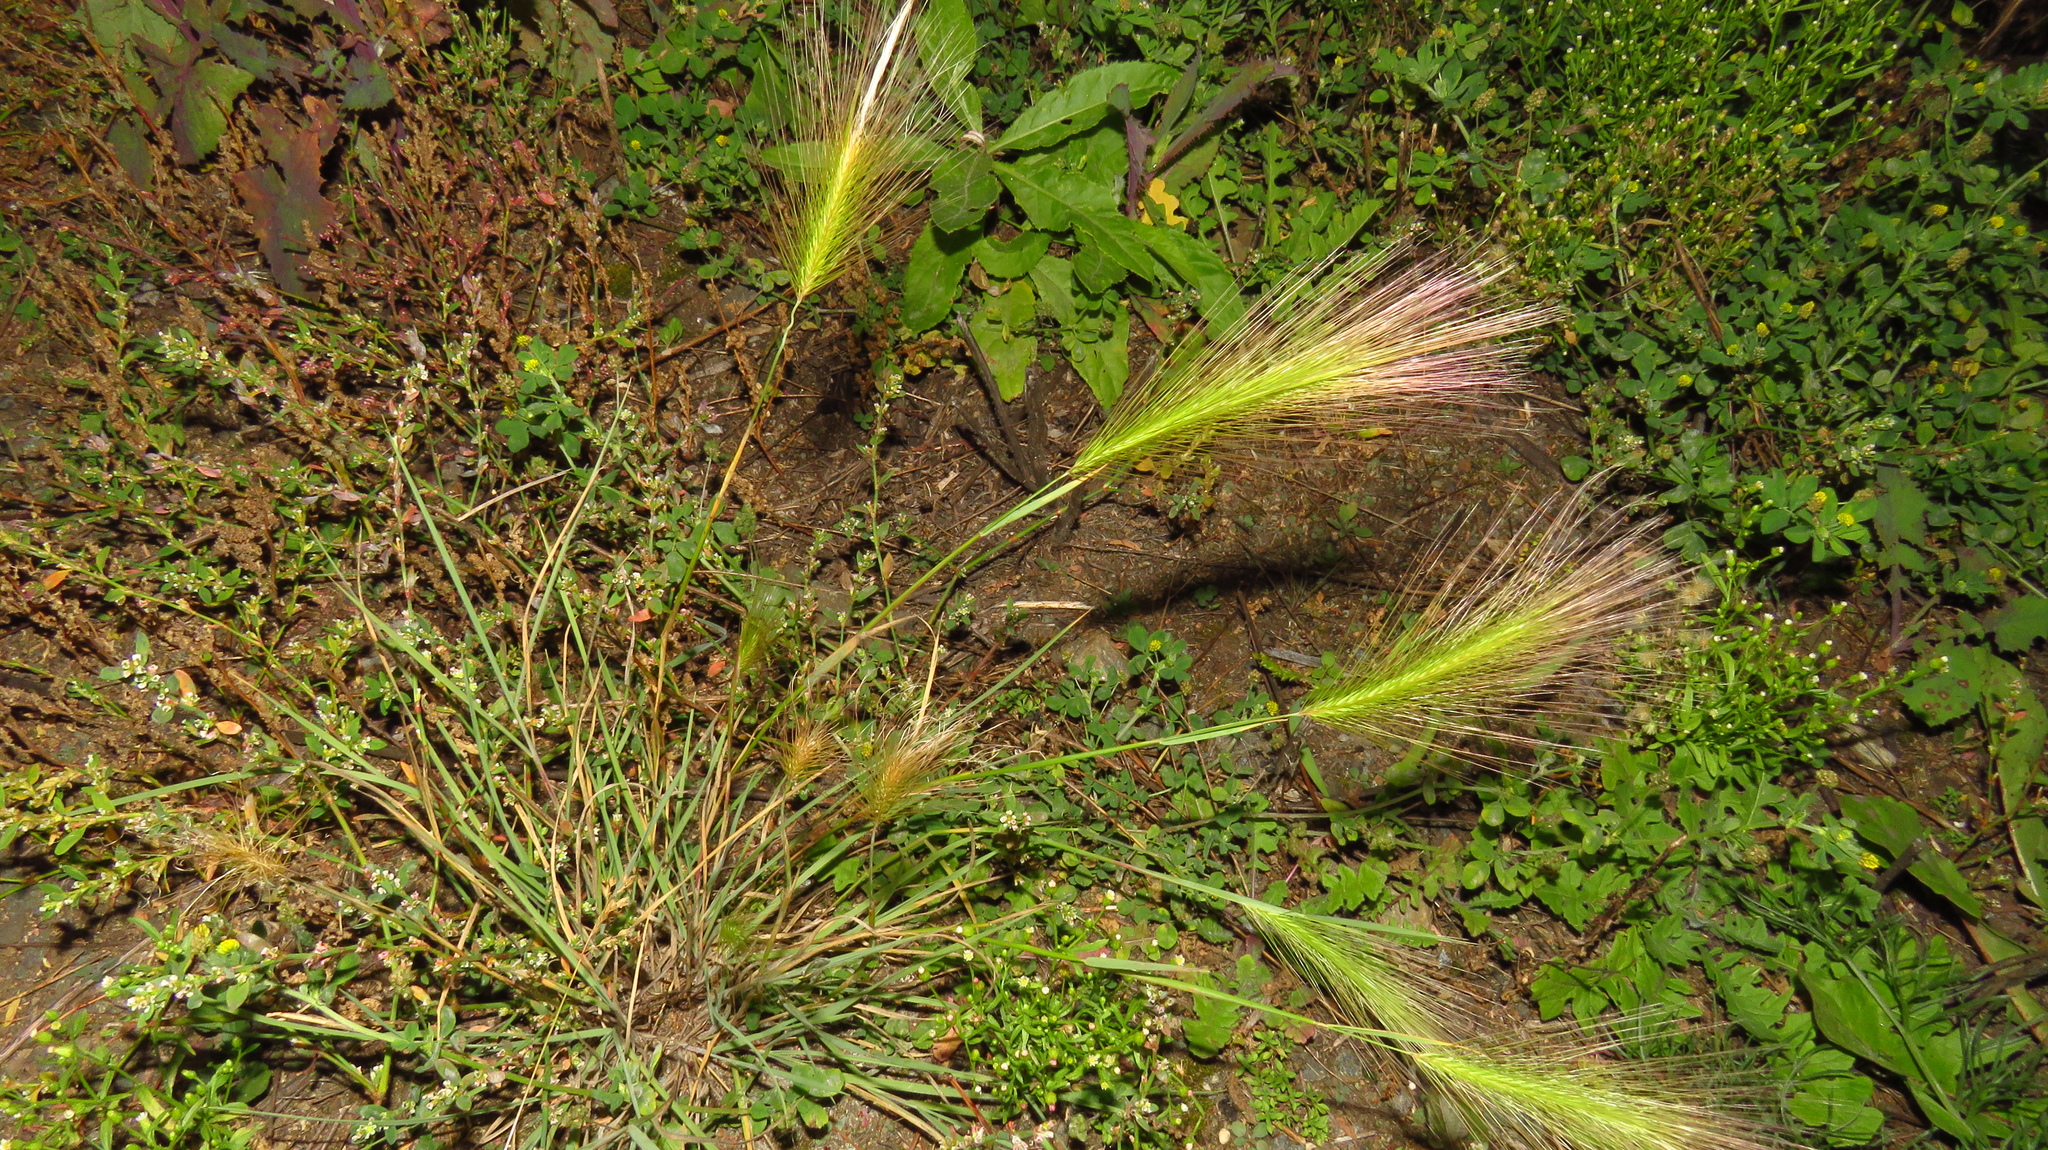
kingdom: Plantae
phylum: Tracheophyta
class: Liliopsida
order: Poales
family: Poaceae
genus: Hordeum
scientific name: Hordeum jubatum
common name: Foxtail barley
